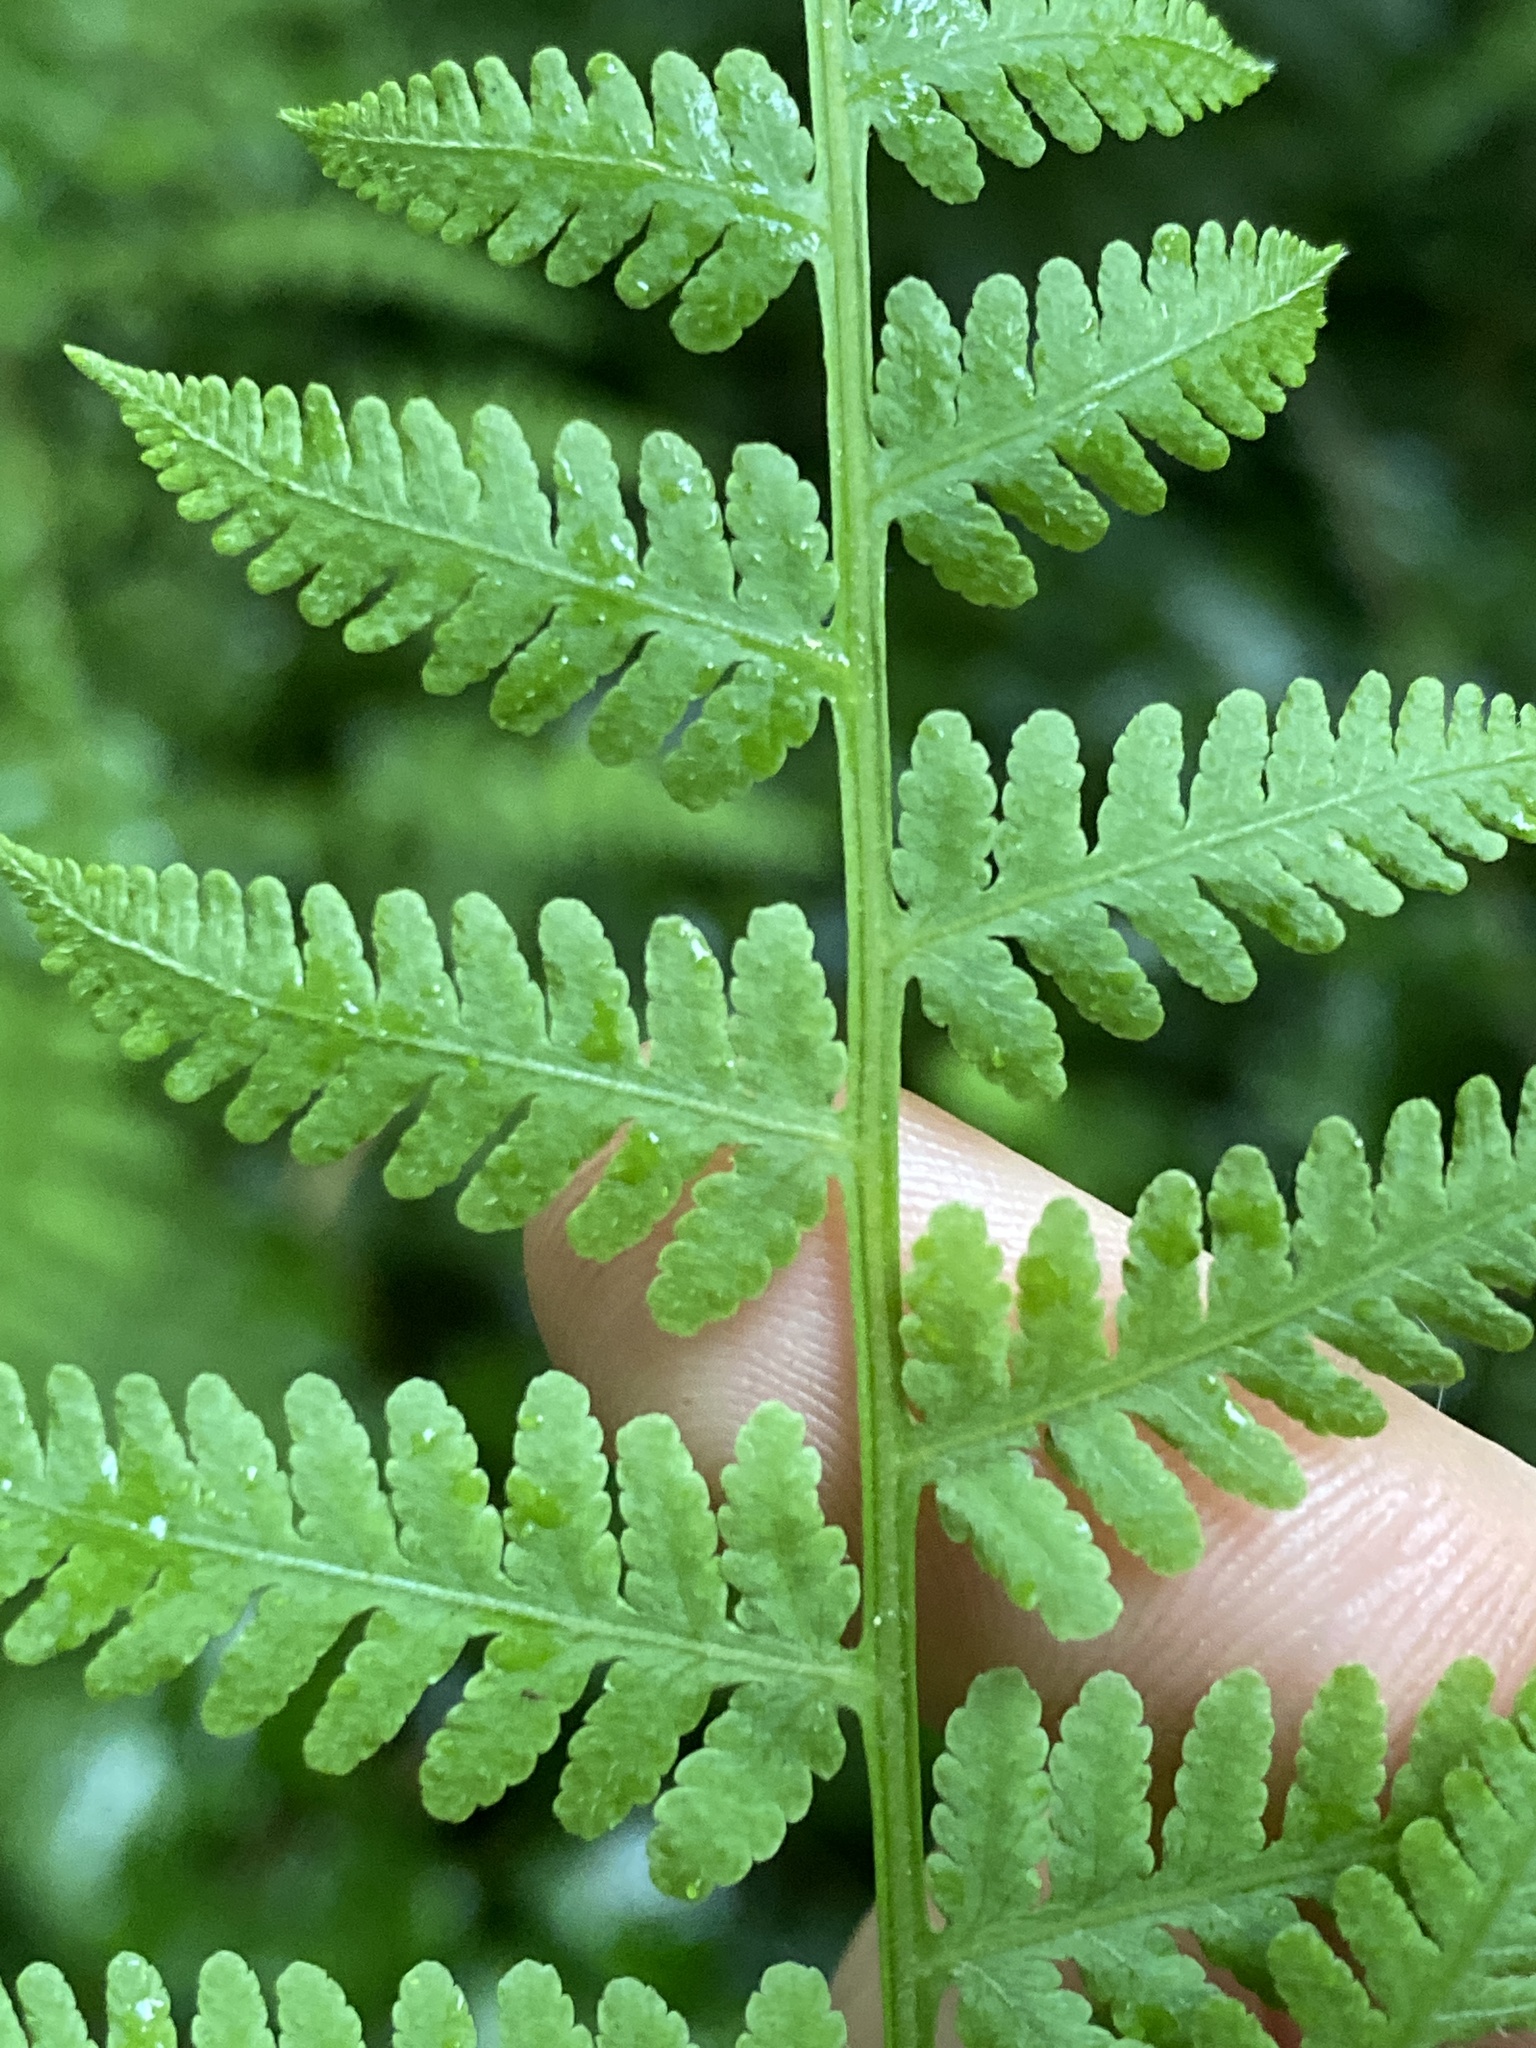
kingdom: Plantae
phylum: Tracheophyta
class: Polypodiopsida
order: Polypodiales
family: Thelypteridaceae
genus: Macrothelypteris
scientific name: Macrothelypteris torresiana
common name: Swordfern
